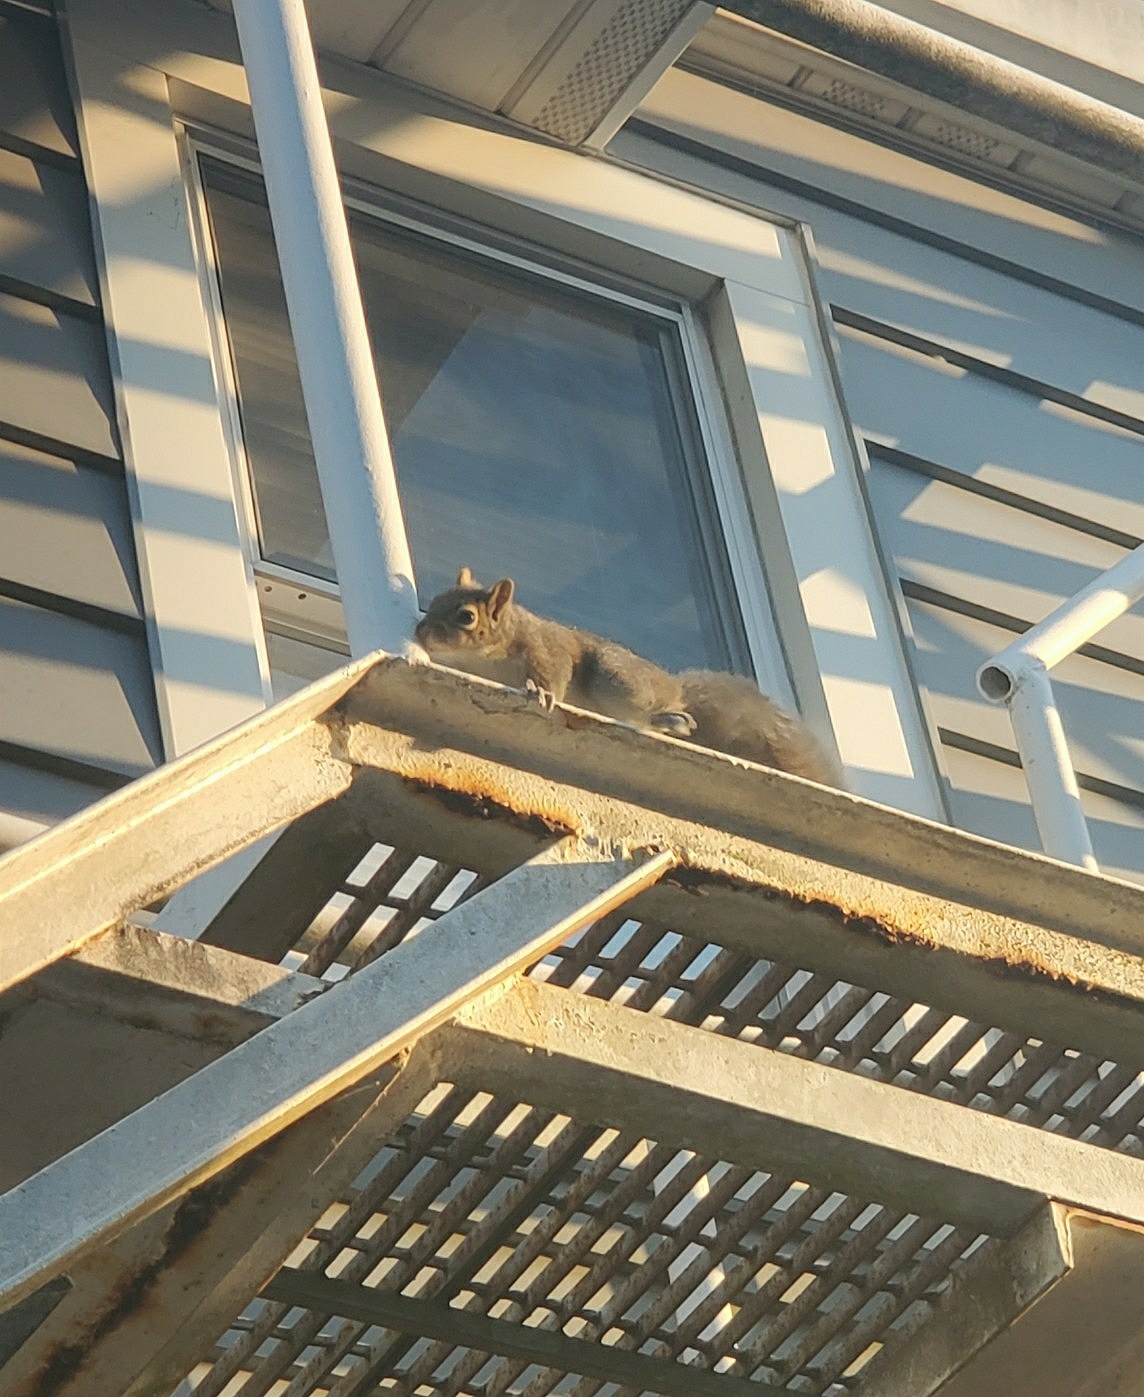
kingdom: Animalia
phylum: Chordata
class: Mammalia
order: Rodentia
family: Sciuridae
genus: Sciurus
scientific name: Sciurus carolinensis
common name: Eastern gray squirrel
